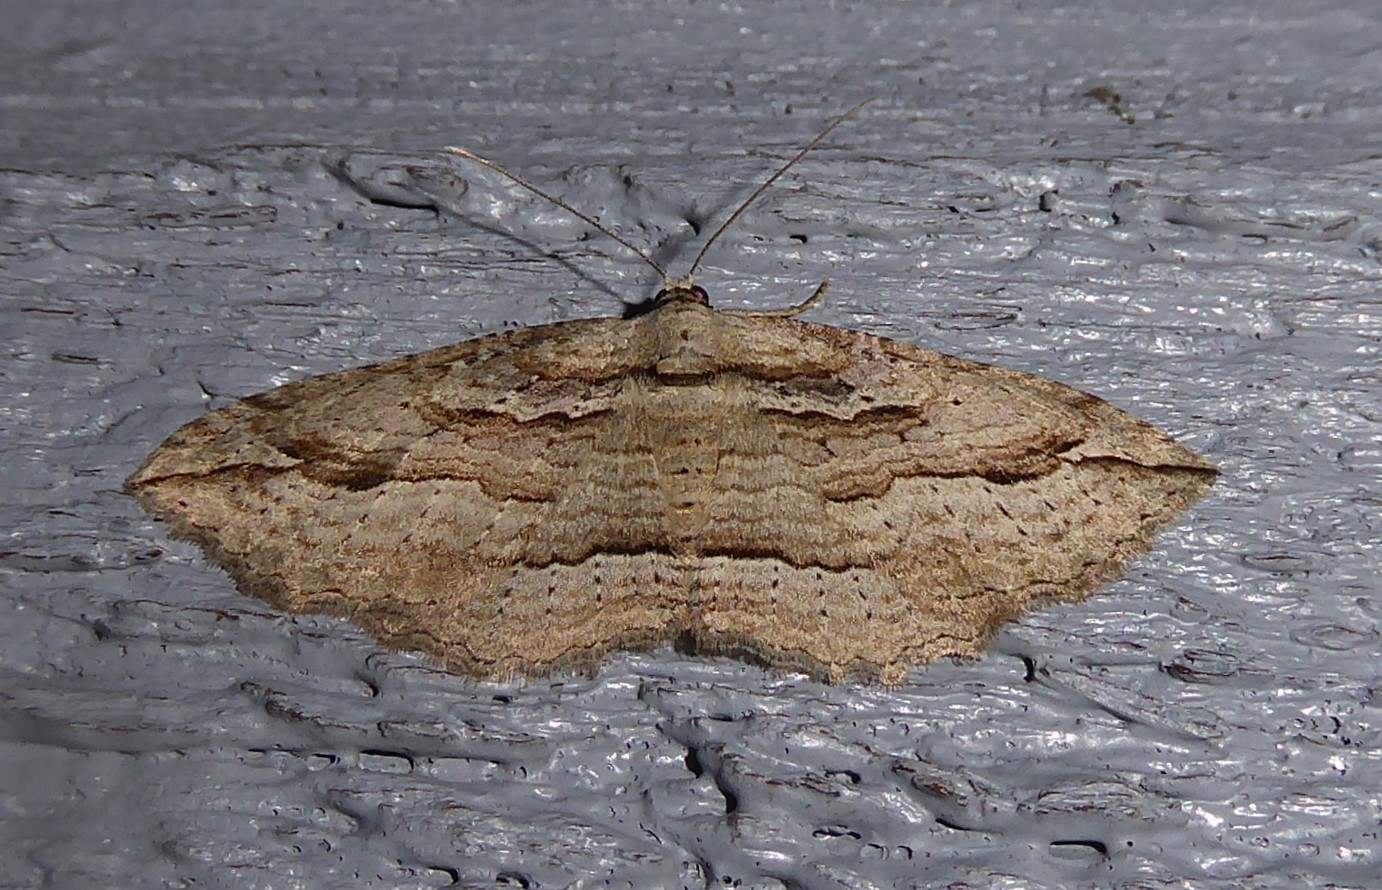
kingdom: Animalia
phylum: Arthropoda
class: Insecta
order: Lepidoptera
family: Geometridae
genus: Austrocidaria
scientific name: Austrocidaria gobiata
